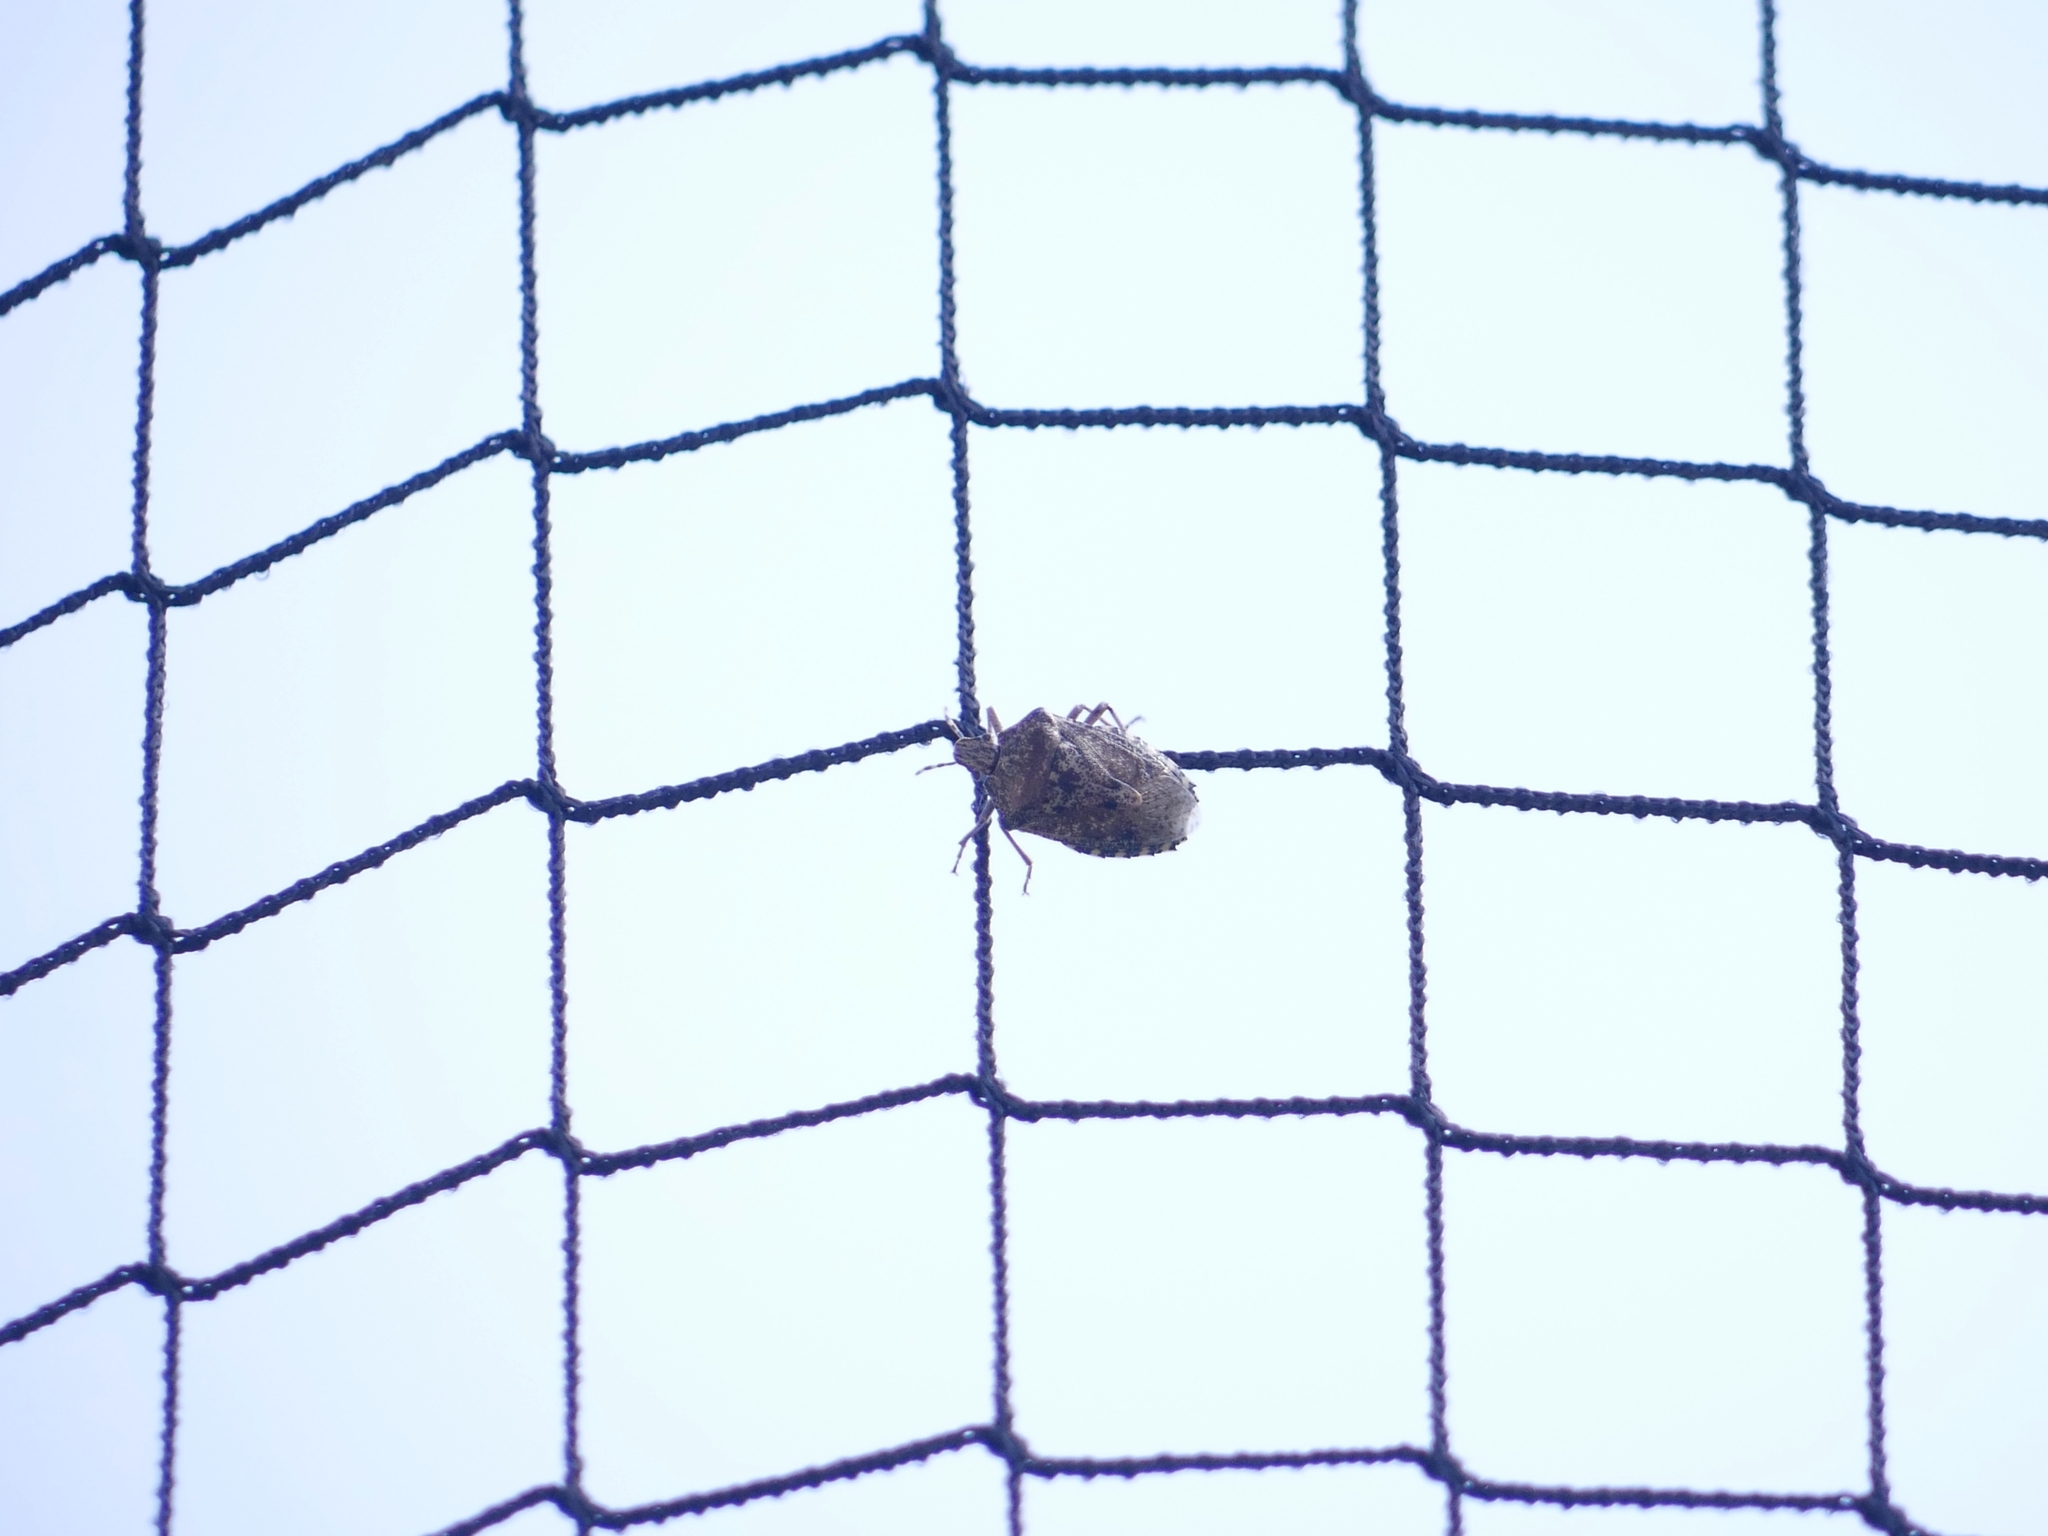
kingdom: Animalia
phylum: Arthropoda
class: Insecta
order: Hemiptera
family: Pentatomidae
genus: Rhaphigaster
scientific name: Rhaphigaster nebulosa
